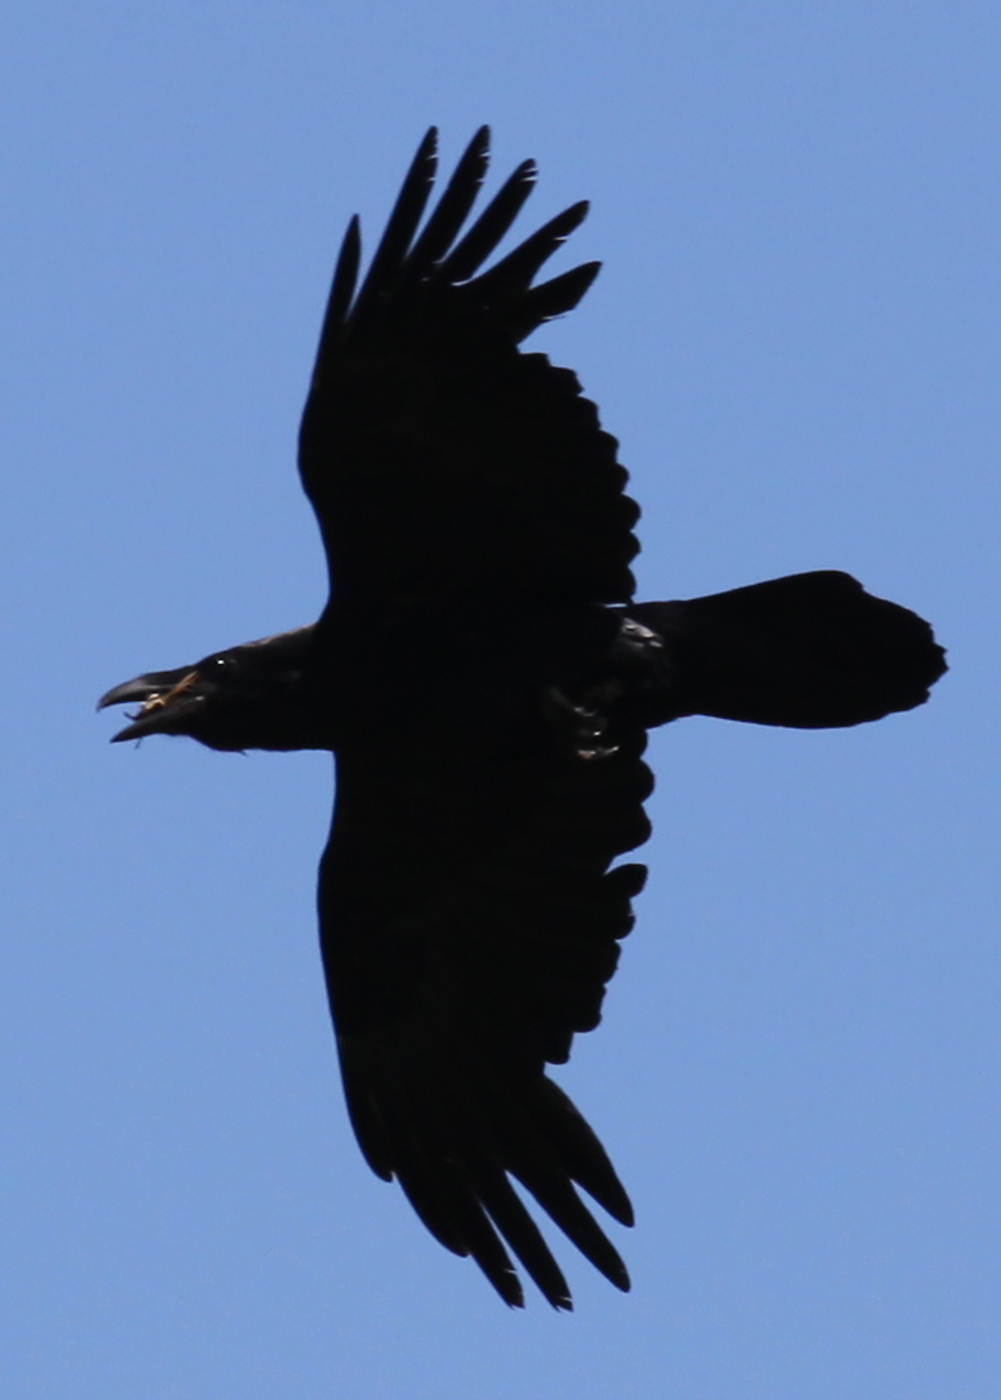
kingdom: Animalia
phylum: Chordata
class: Aves
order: Passeriformes
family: Corvidae
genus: Corvus
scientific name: Corvus corax
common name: Common raven
